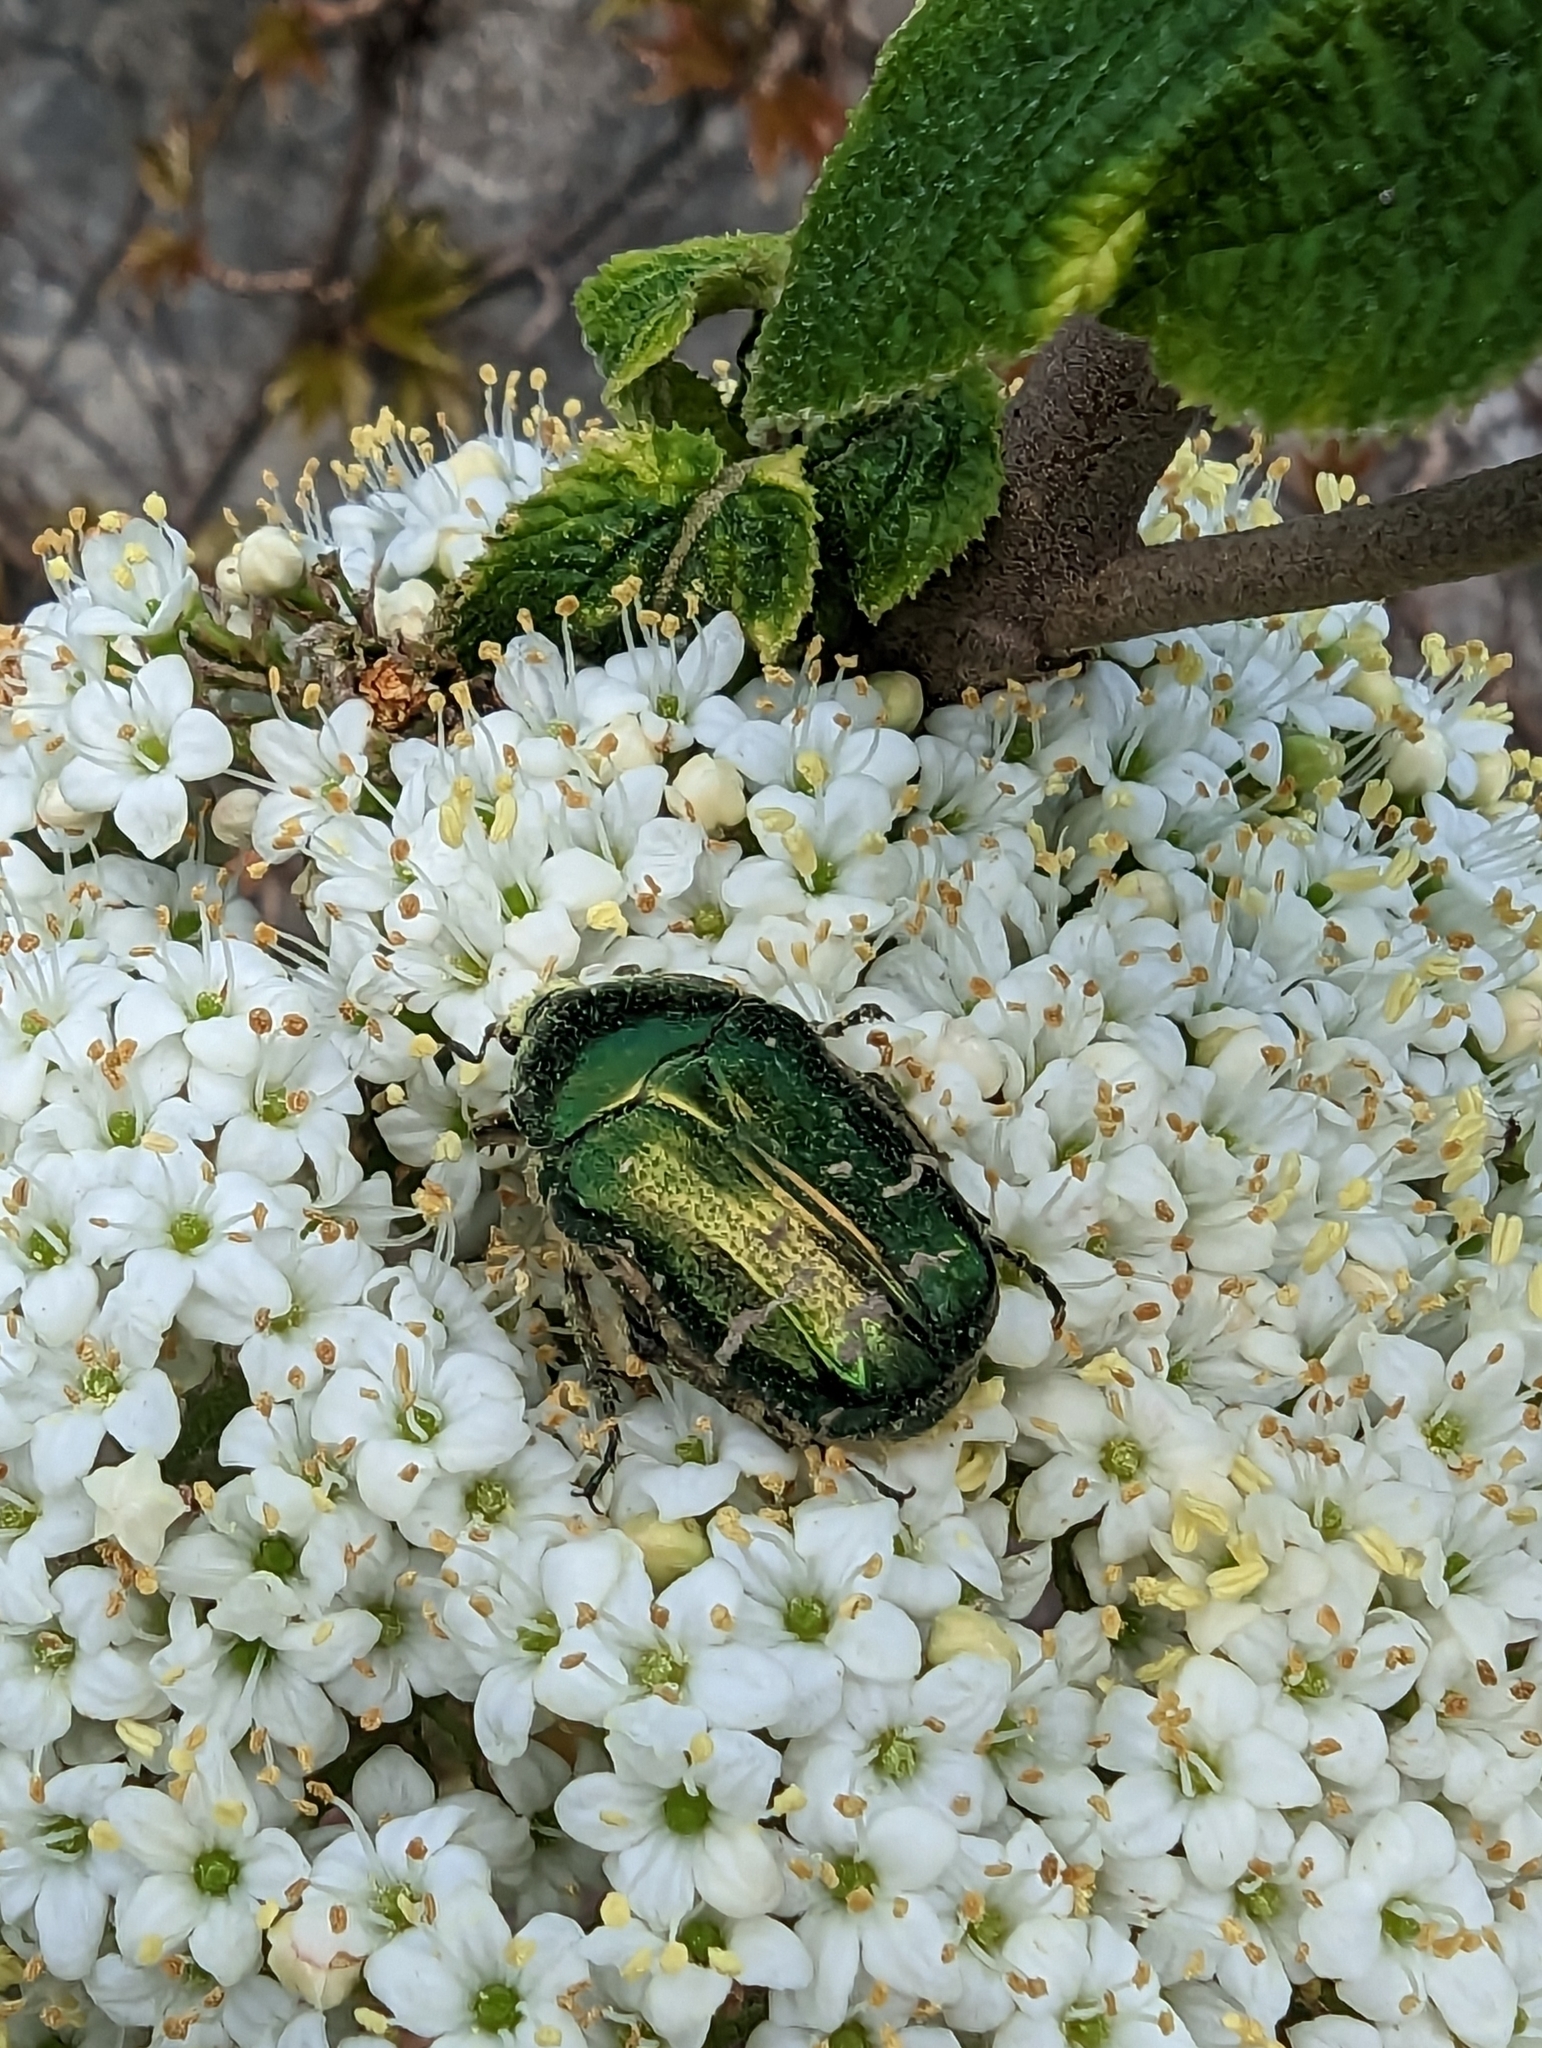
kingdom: Animalia
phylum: Arthropoda
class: Insecta
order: Coleoptera
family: Scarabaeidae
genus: Cetonia
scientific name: Cetonia aurata
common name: Rose chafer
